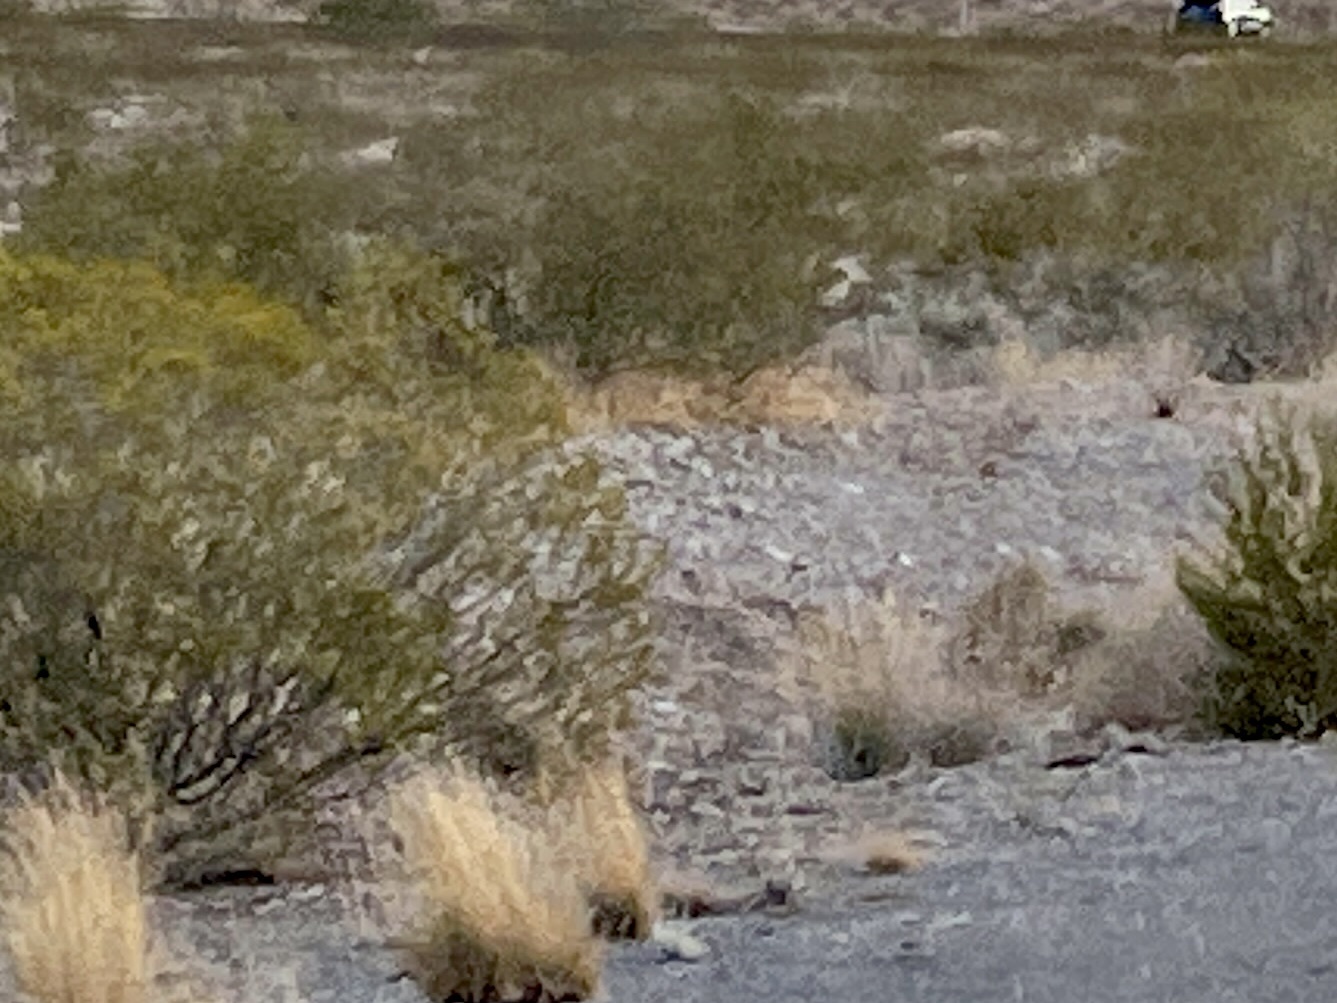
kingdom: Plantae
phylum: Tracheophyta
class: Magnoliopsida
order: Zygophyllales
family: Zygophyllaceae
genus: Larrea
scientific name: Larrea tridentata
